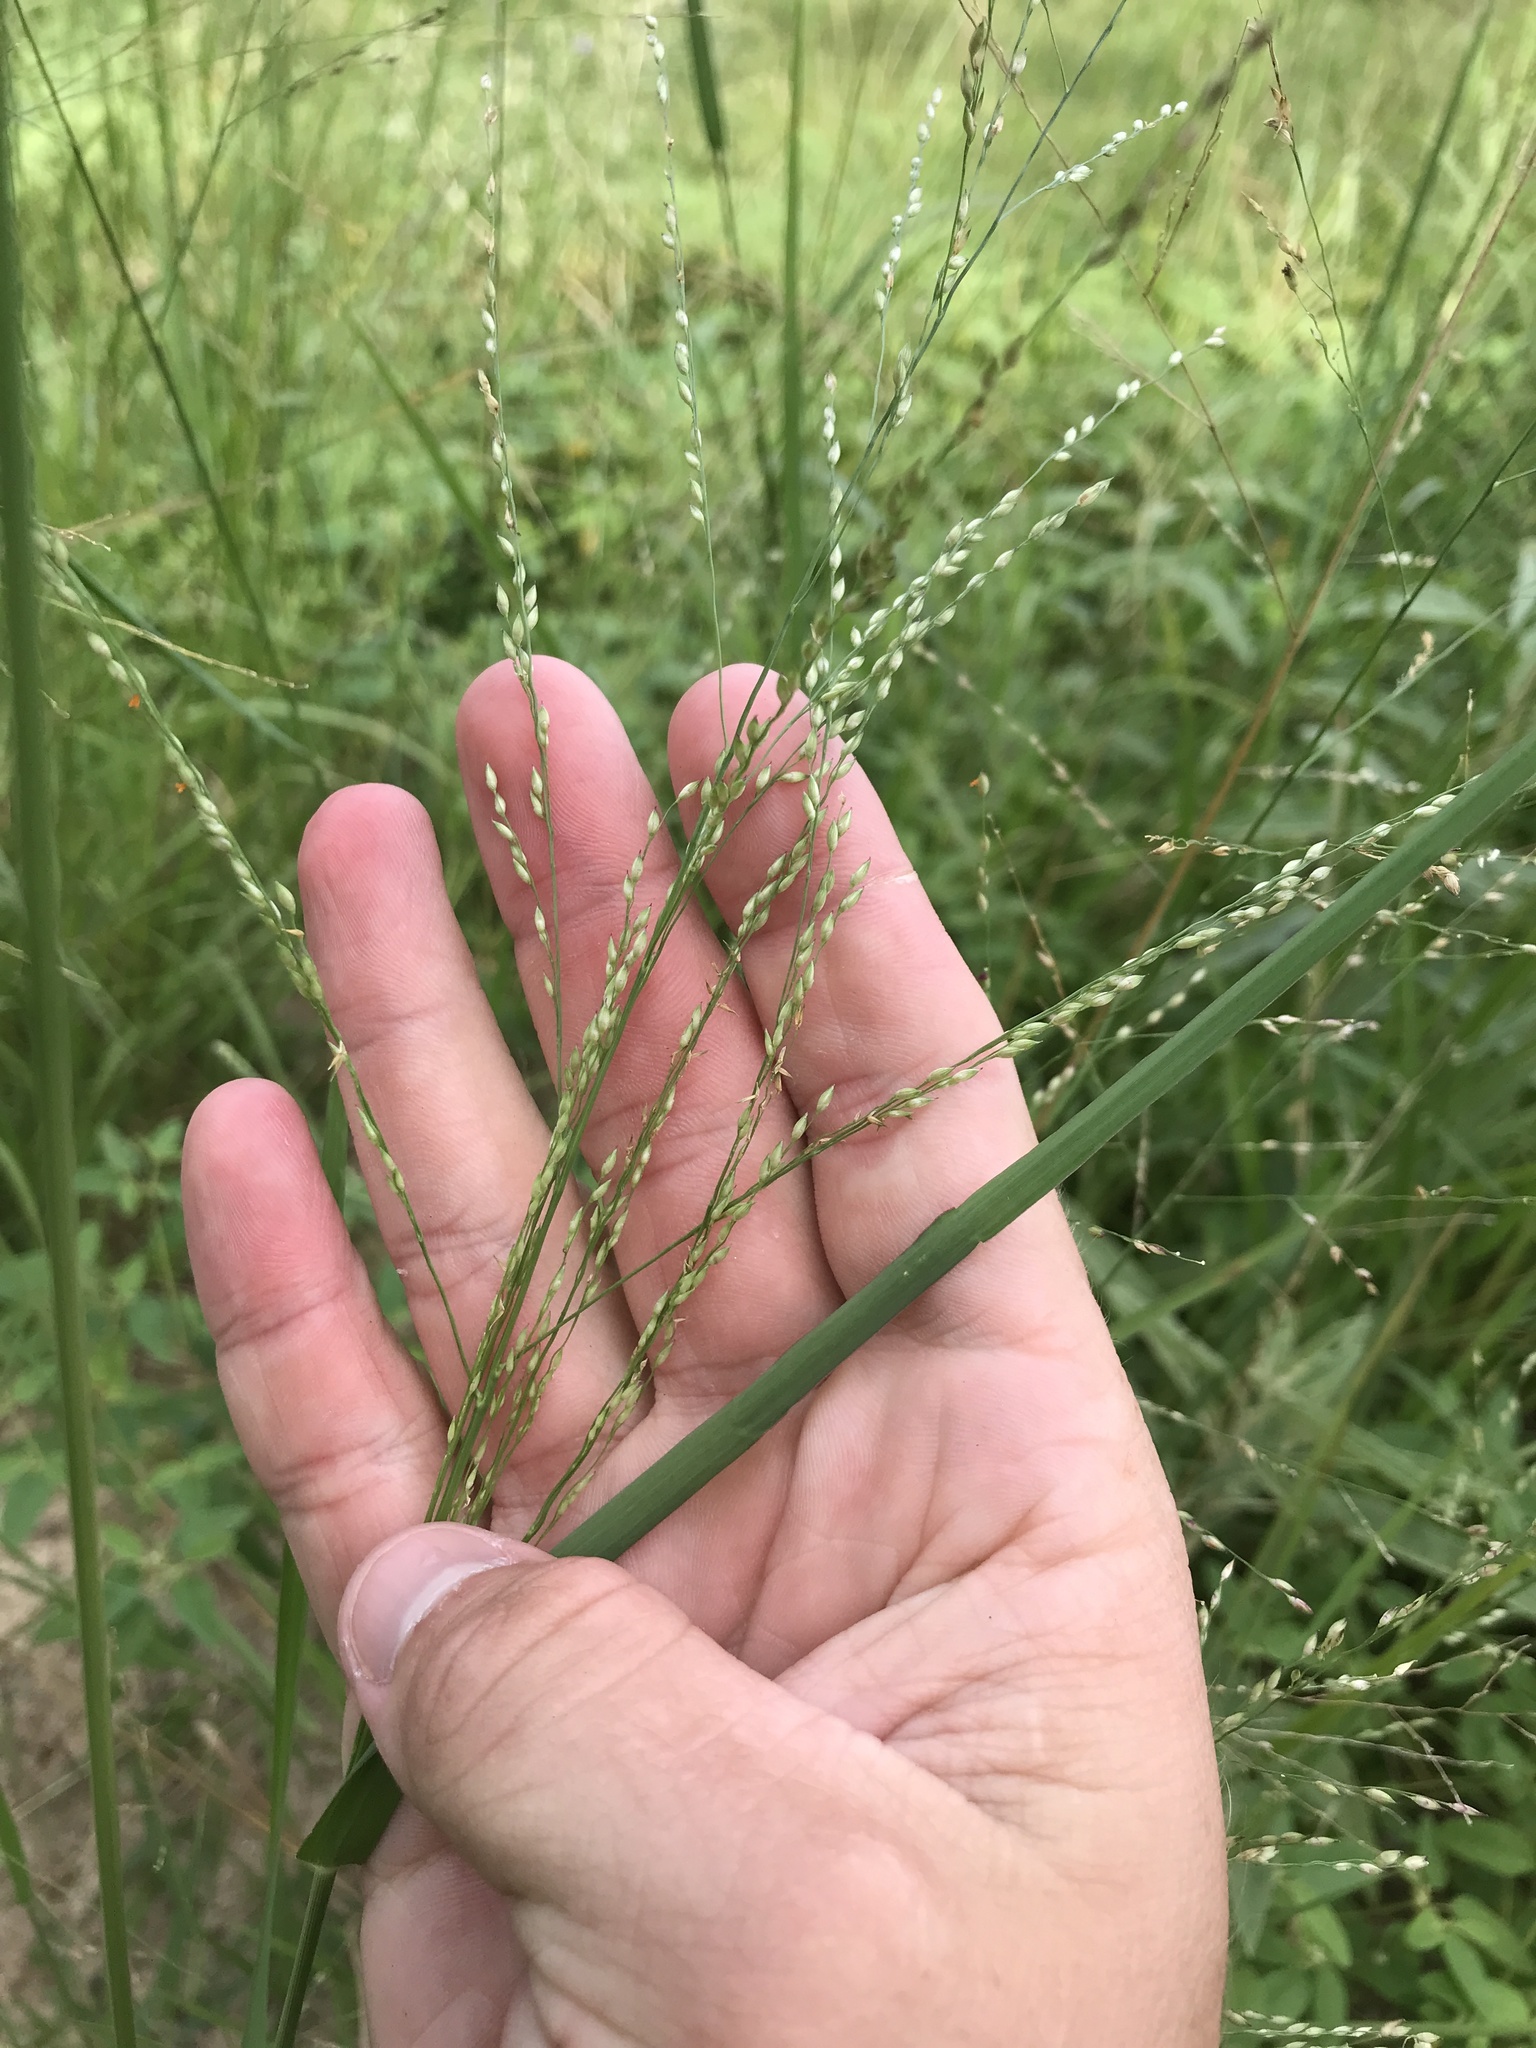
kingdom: Plantae
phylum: Tracheophyta
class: Liliopsida
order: Poales
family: Poaceae
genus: Panicum
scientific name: Panicum coloratum
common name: Kleingrass
